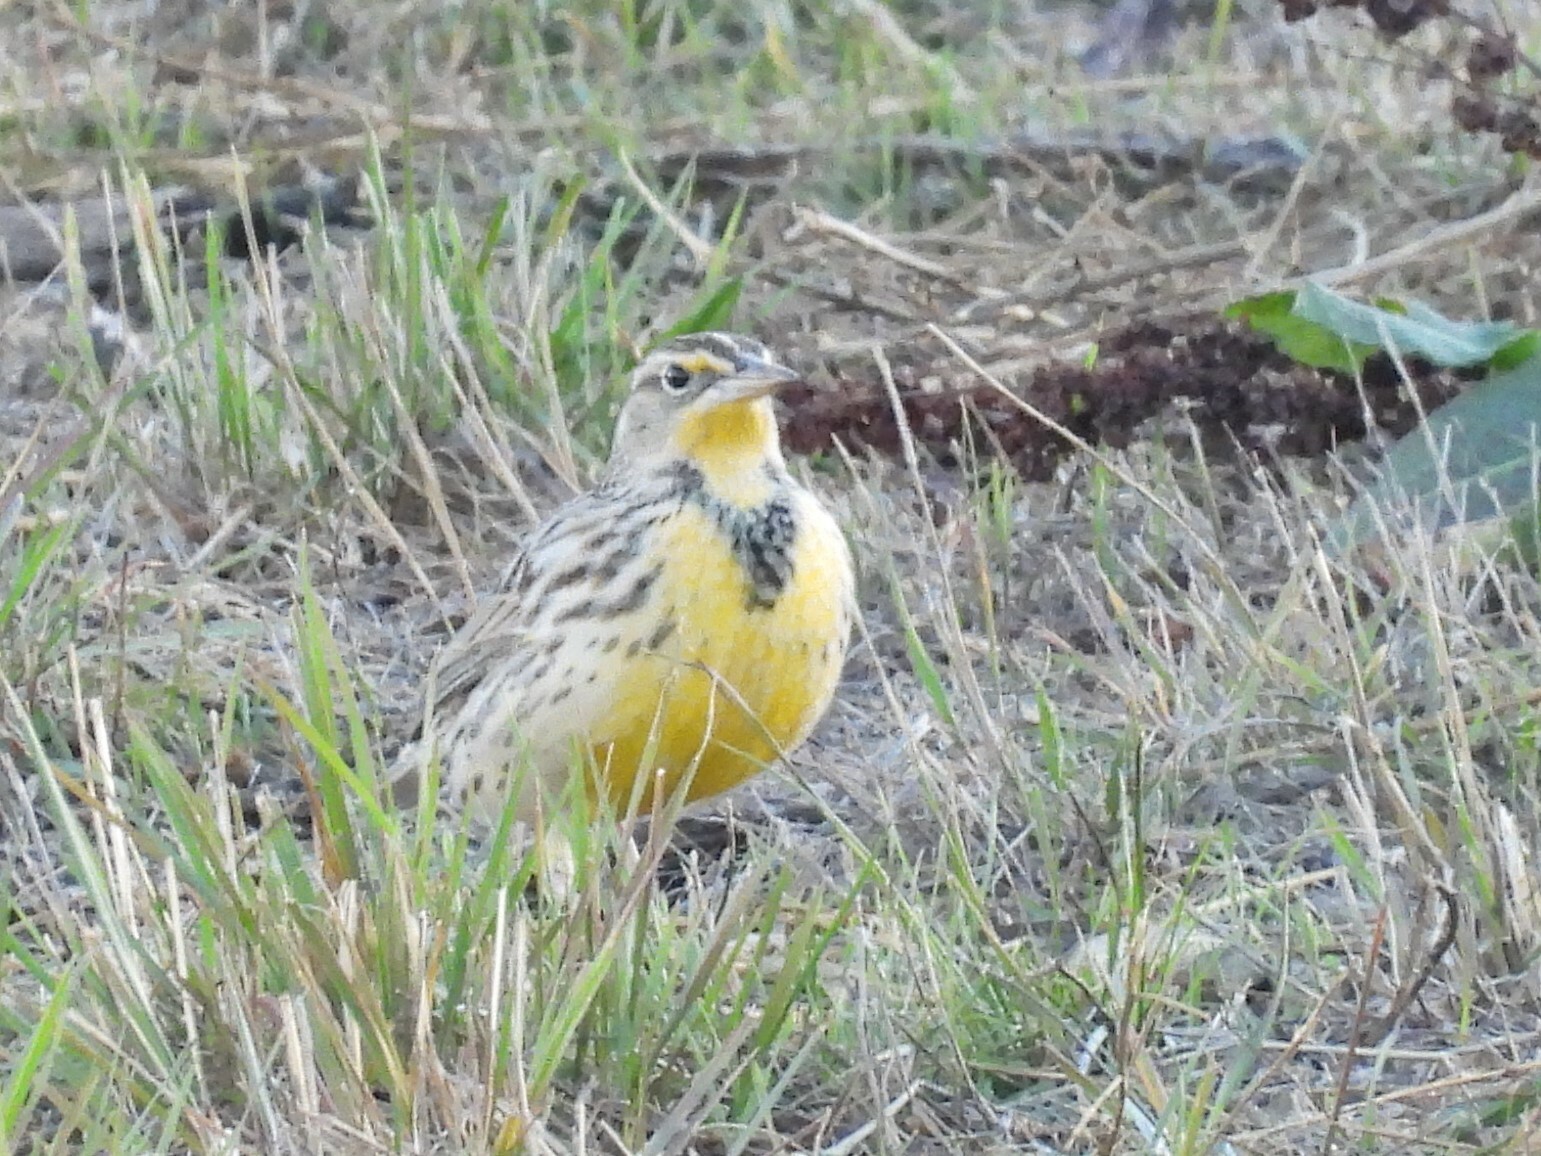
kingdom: Animalia
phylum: Chordata
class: Aves
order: Passeriformes
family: Icteridae
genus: Sturnella
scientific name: Sturnella neglecta
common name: Western meadowlark
